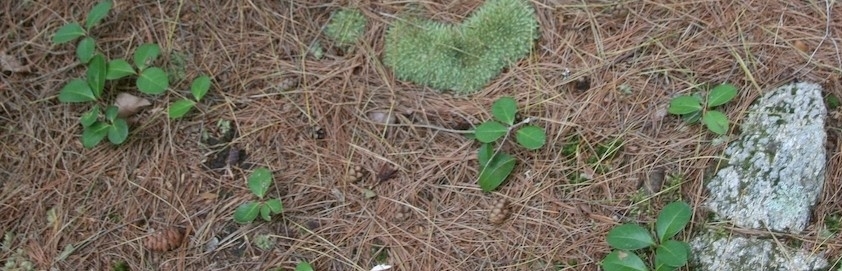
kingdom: Plantae
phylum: Tracheophyta
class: Magnoliopsida
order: Ericales
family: Ericaceae
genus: Gaultheria
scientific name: Gaultheria procumbens
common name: Checkerberry
